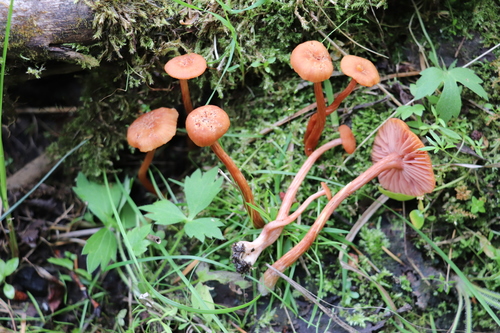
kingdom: Fungi
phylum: Basidiomycota
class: Agaricomycetes
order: Agaricales
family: Hydnangiaceae
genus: Laccaria
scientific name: Laccaria laccata
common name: Deceiver
